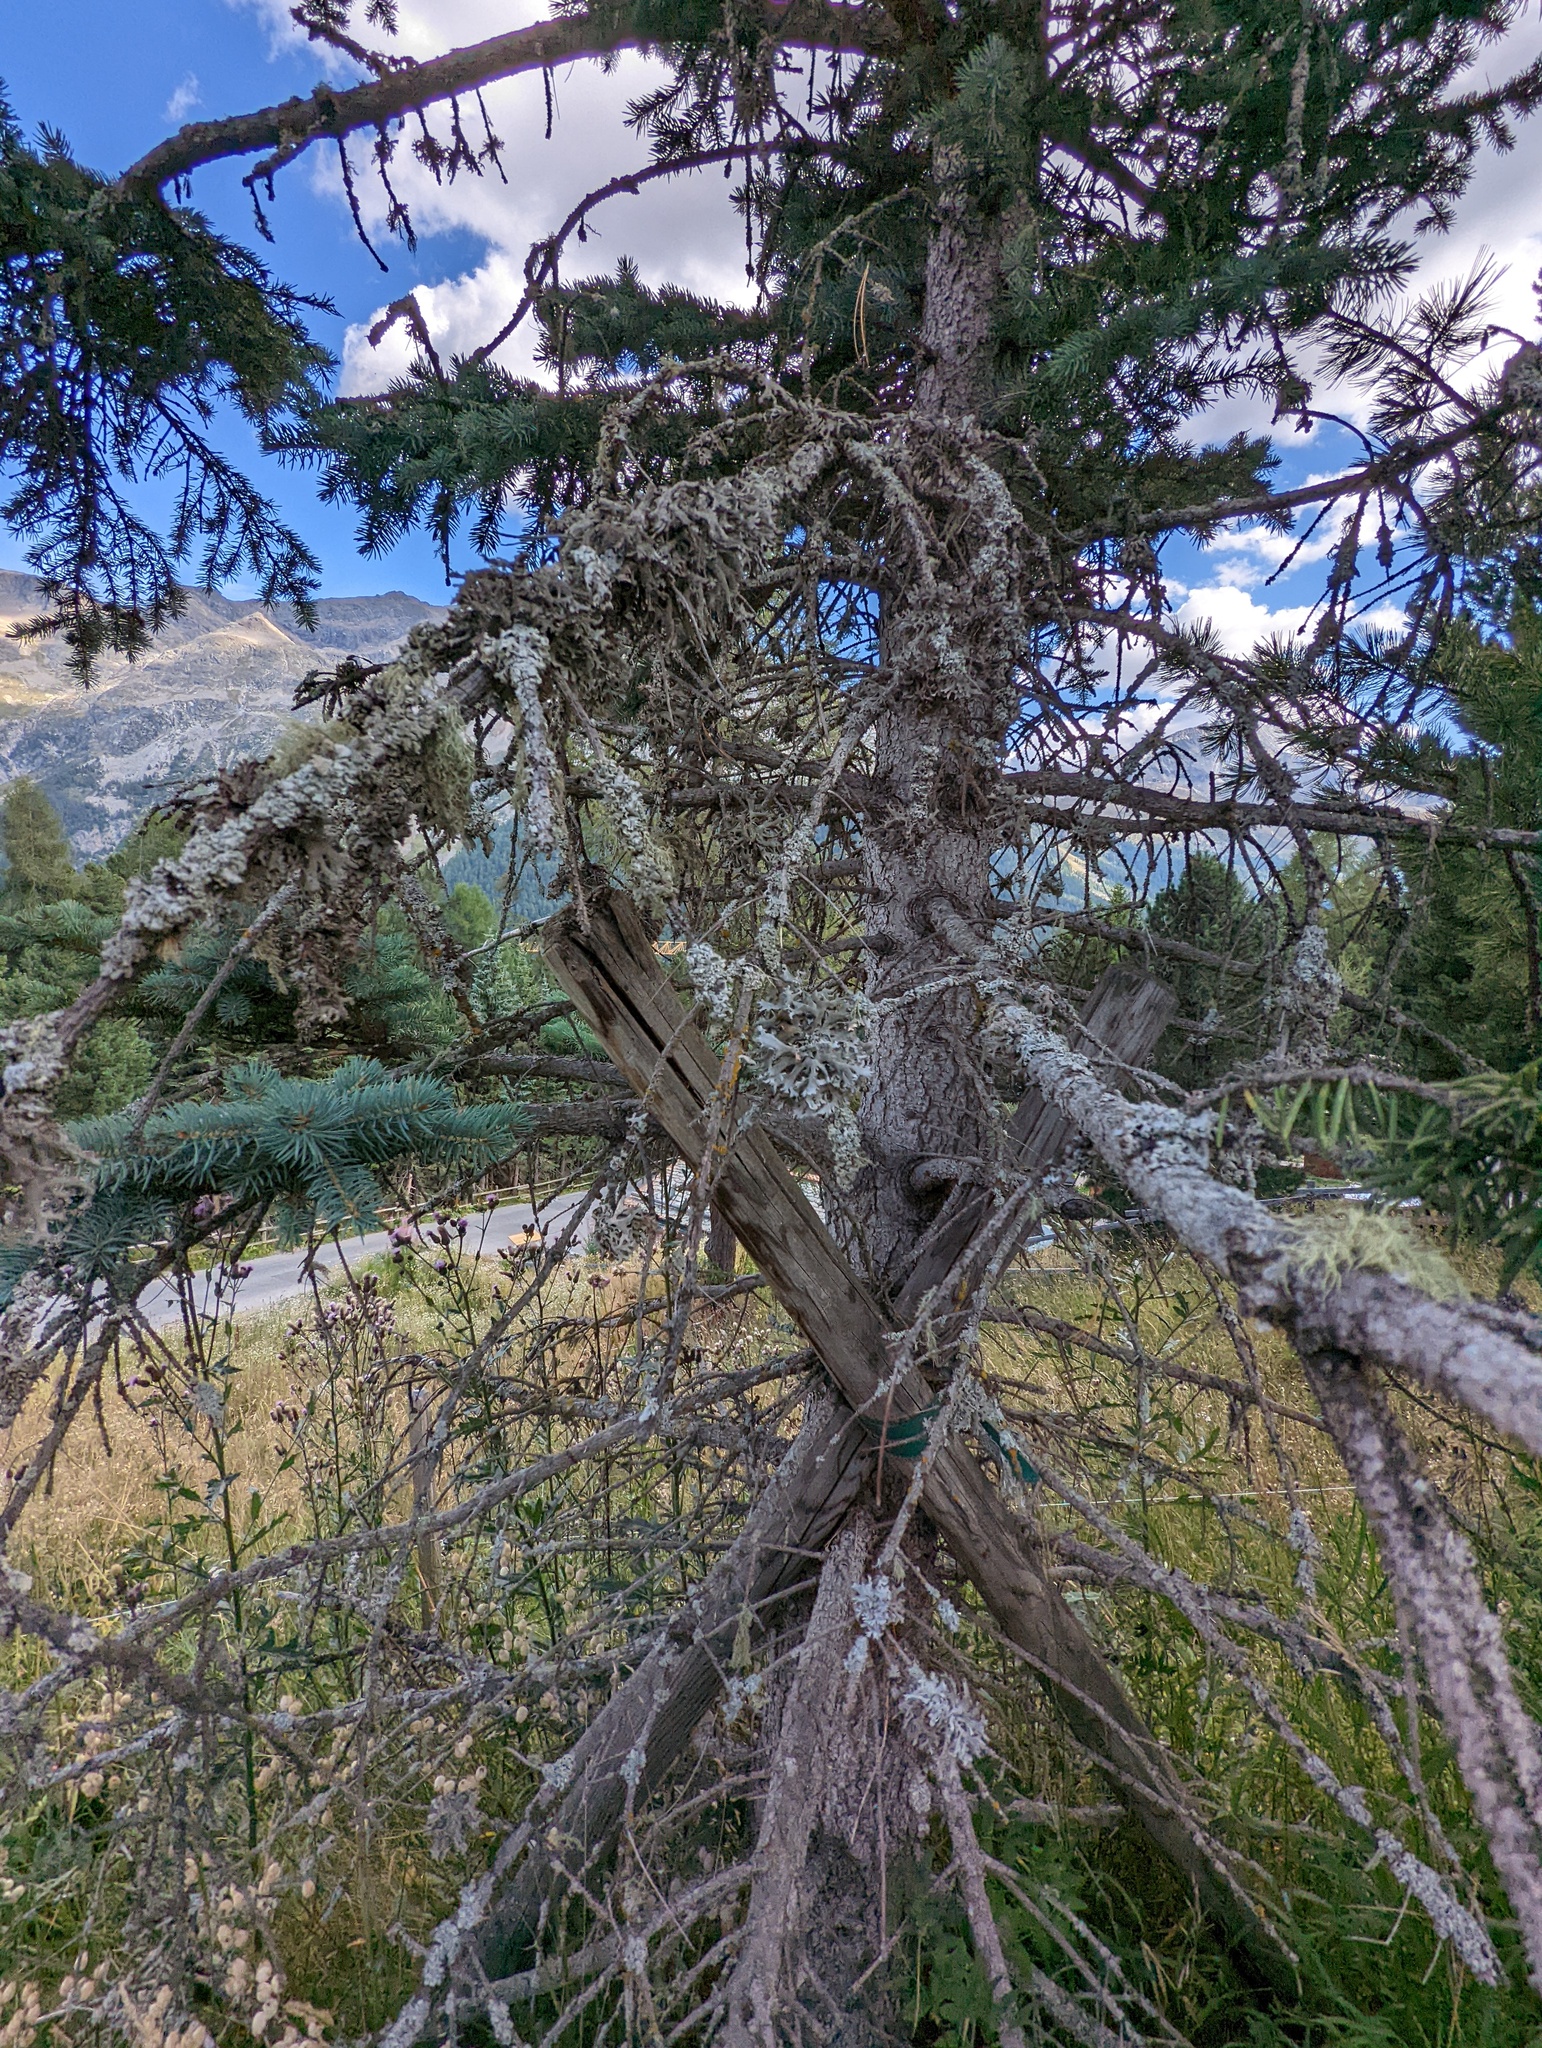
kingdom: Fungi
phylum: Ascomycota
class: Lecanoromycetes
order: Lecanorales
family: Parmeliaceae
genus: Pseudevernia
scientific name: Pseudevernia furfuracea
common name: Tree moss
